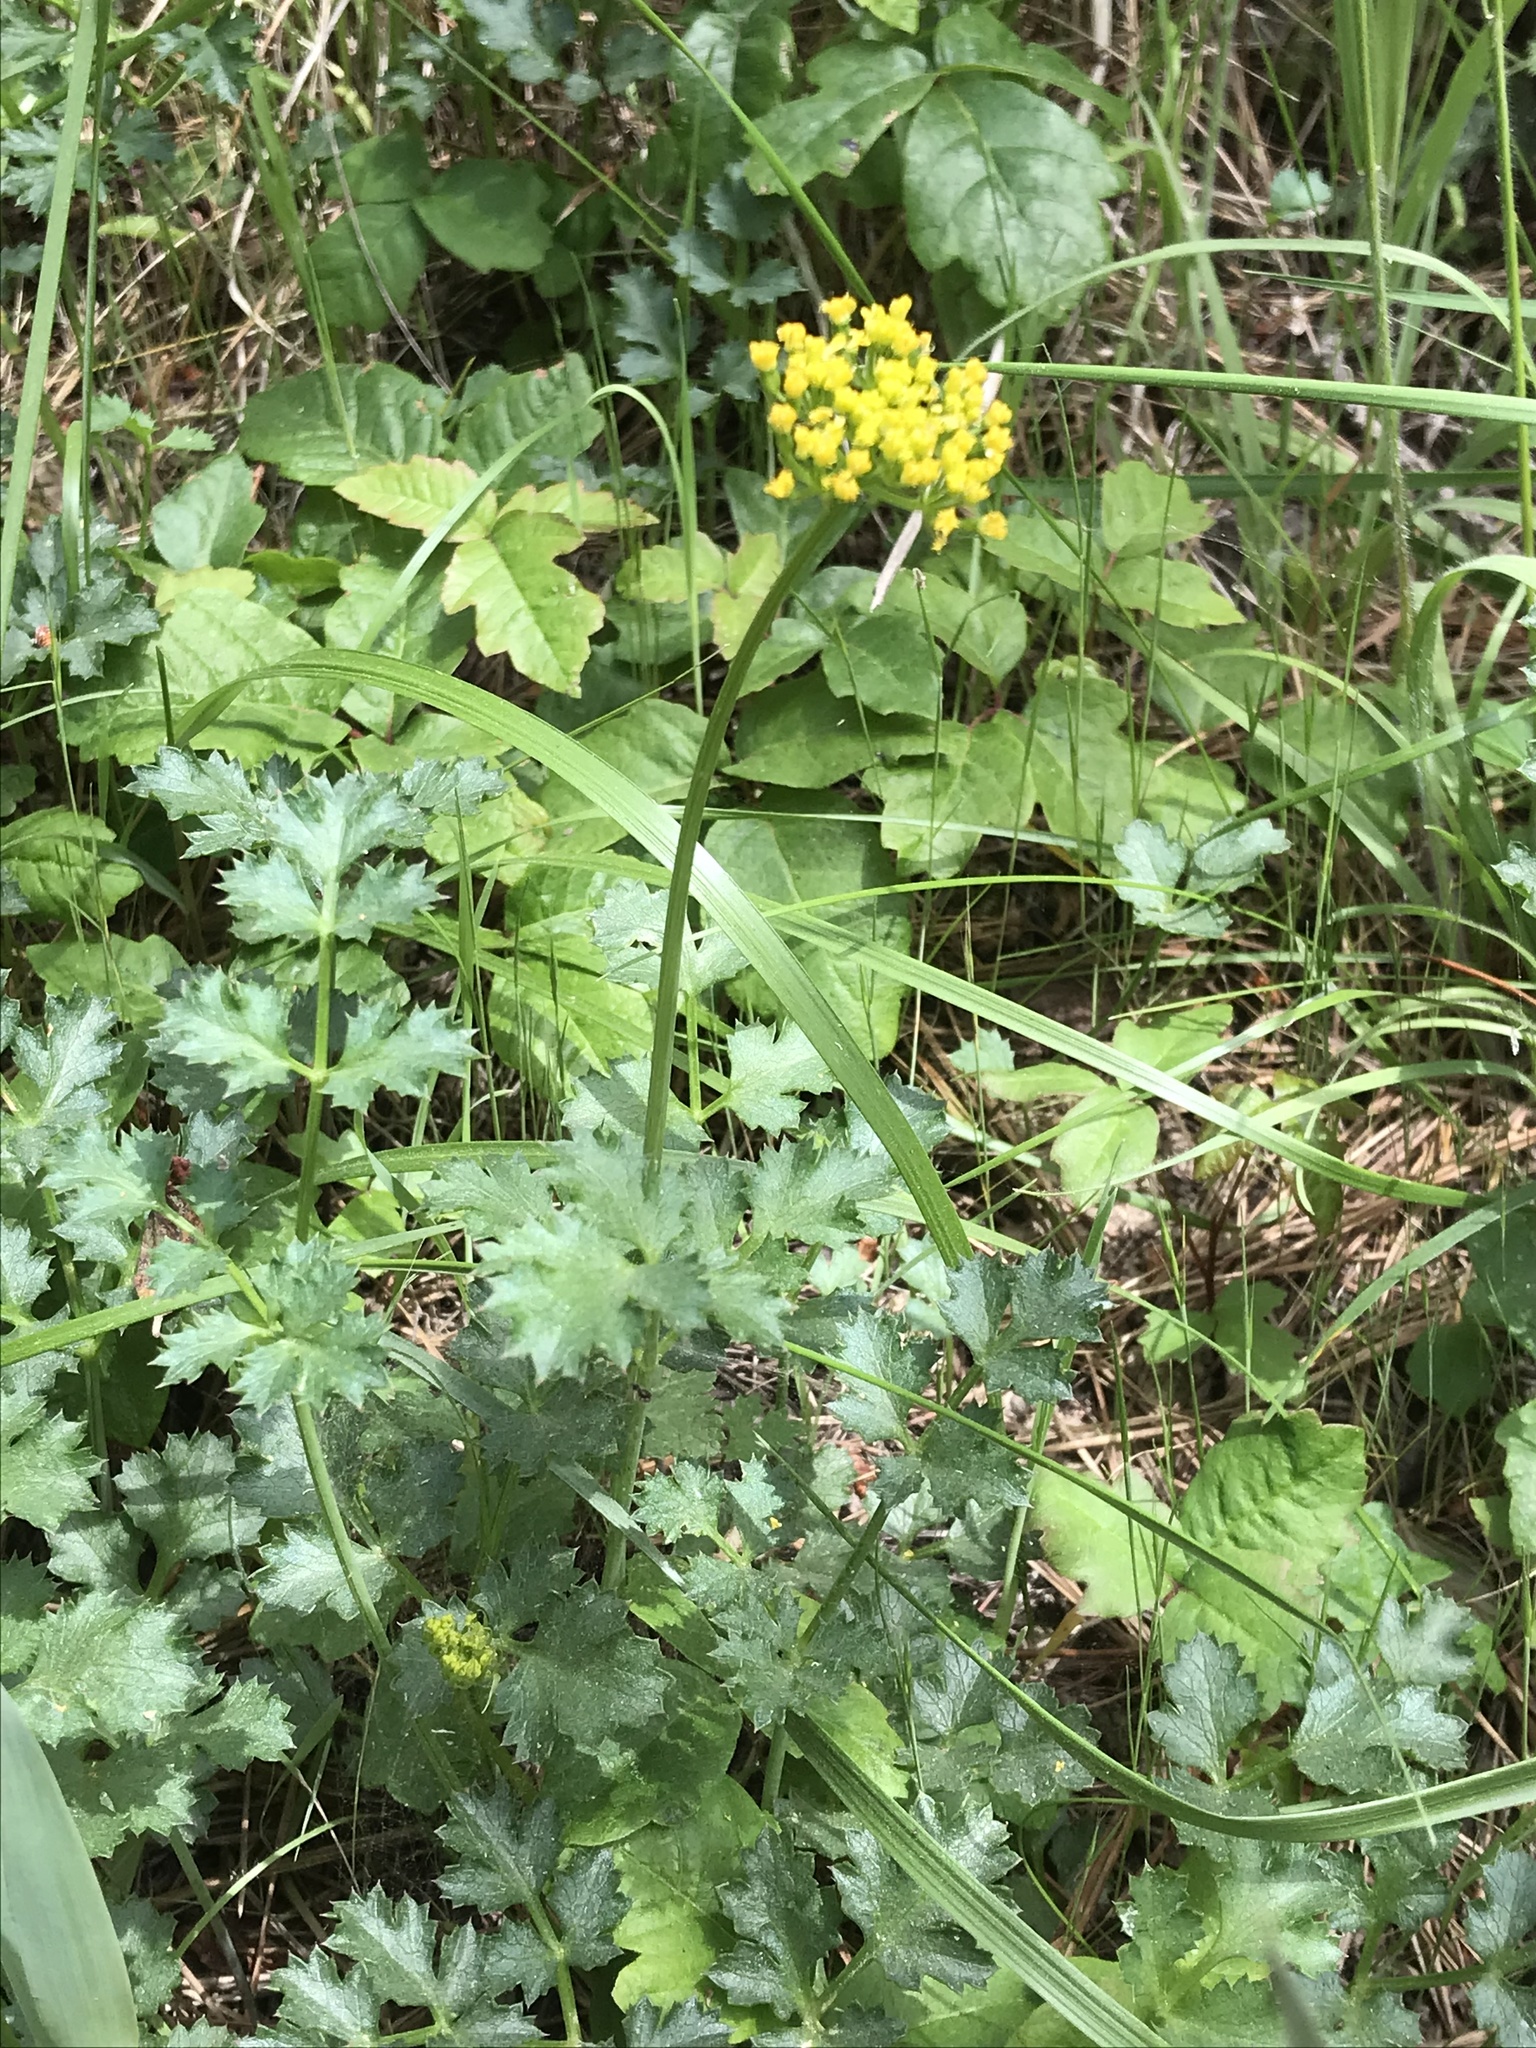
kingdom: Plantae
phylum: Tracheophyta
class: Magnoliopsida
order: Apiales
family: Apiaceae
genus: Lomatium
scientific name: Lomatium parvifolium
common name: Small-leaf lomatium
